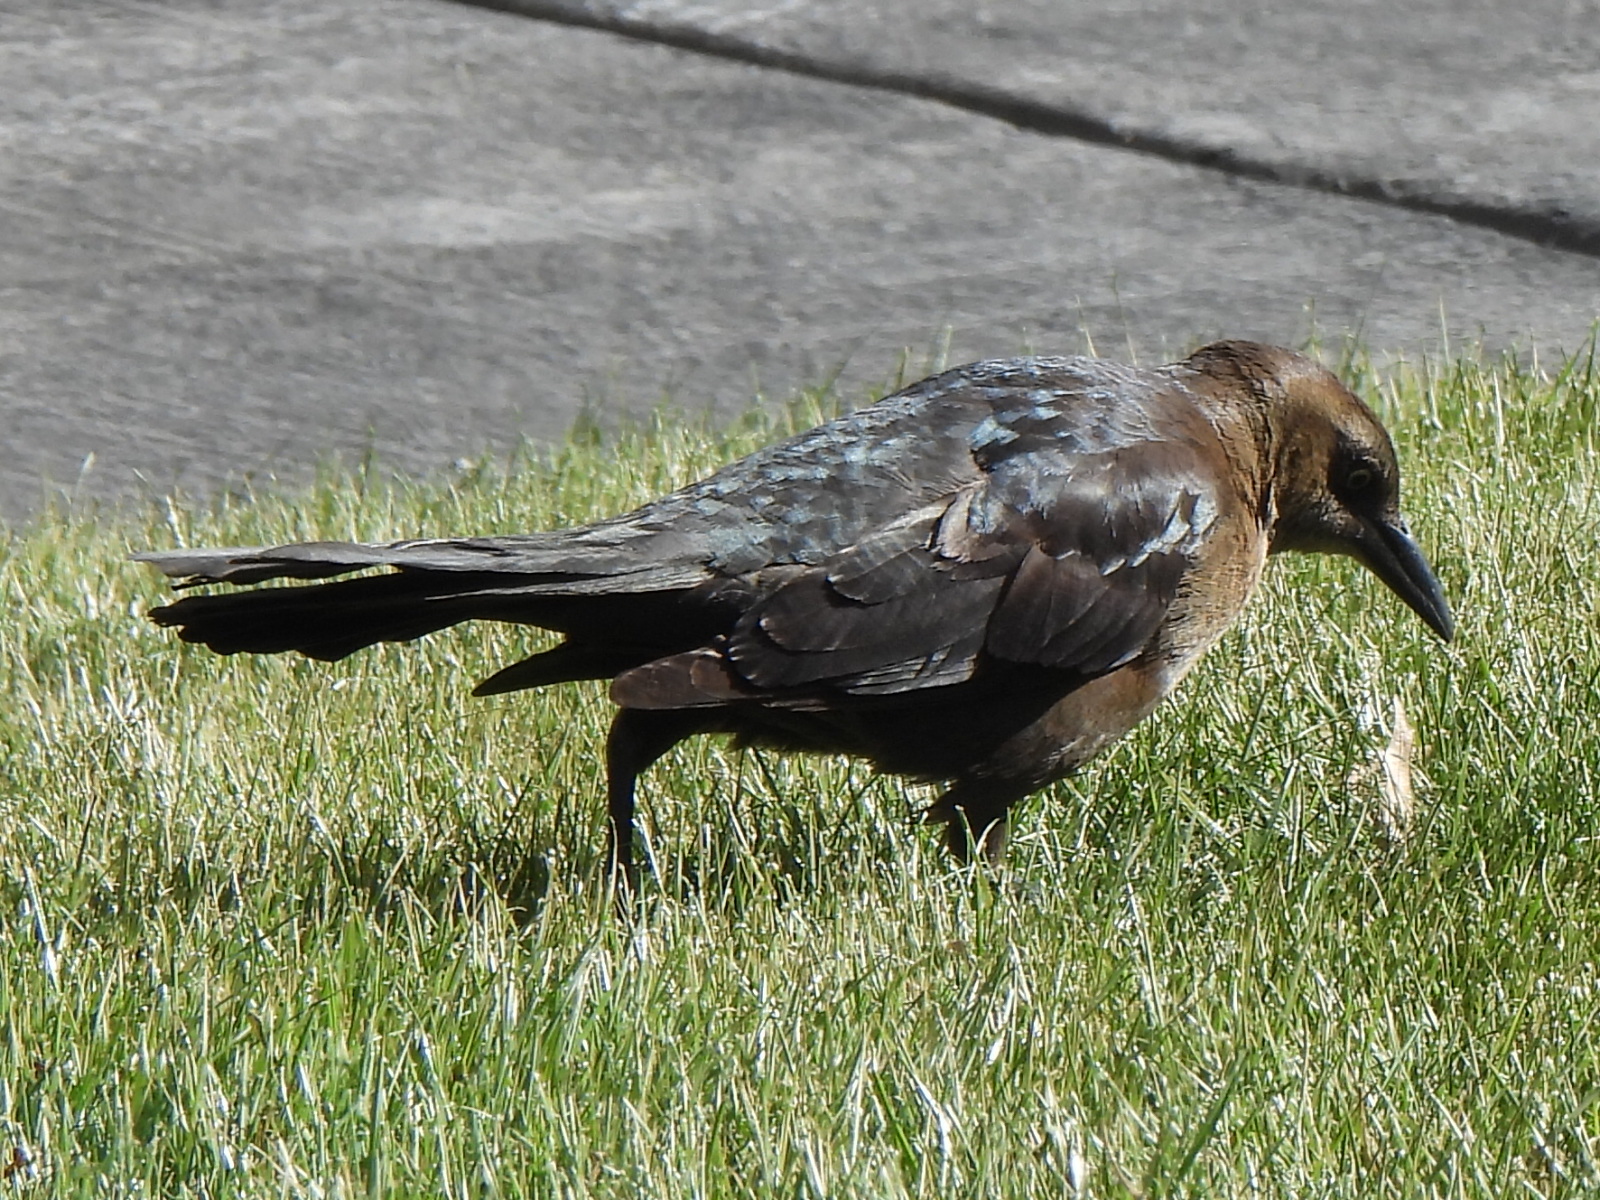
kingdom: Animalia
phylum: Chordata
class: Aves
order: Passeriformes
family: Icteridae
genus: Quiscalus
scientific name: Quiscalus mexicanus
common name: Great-tailed grackle
